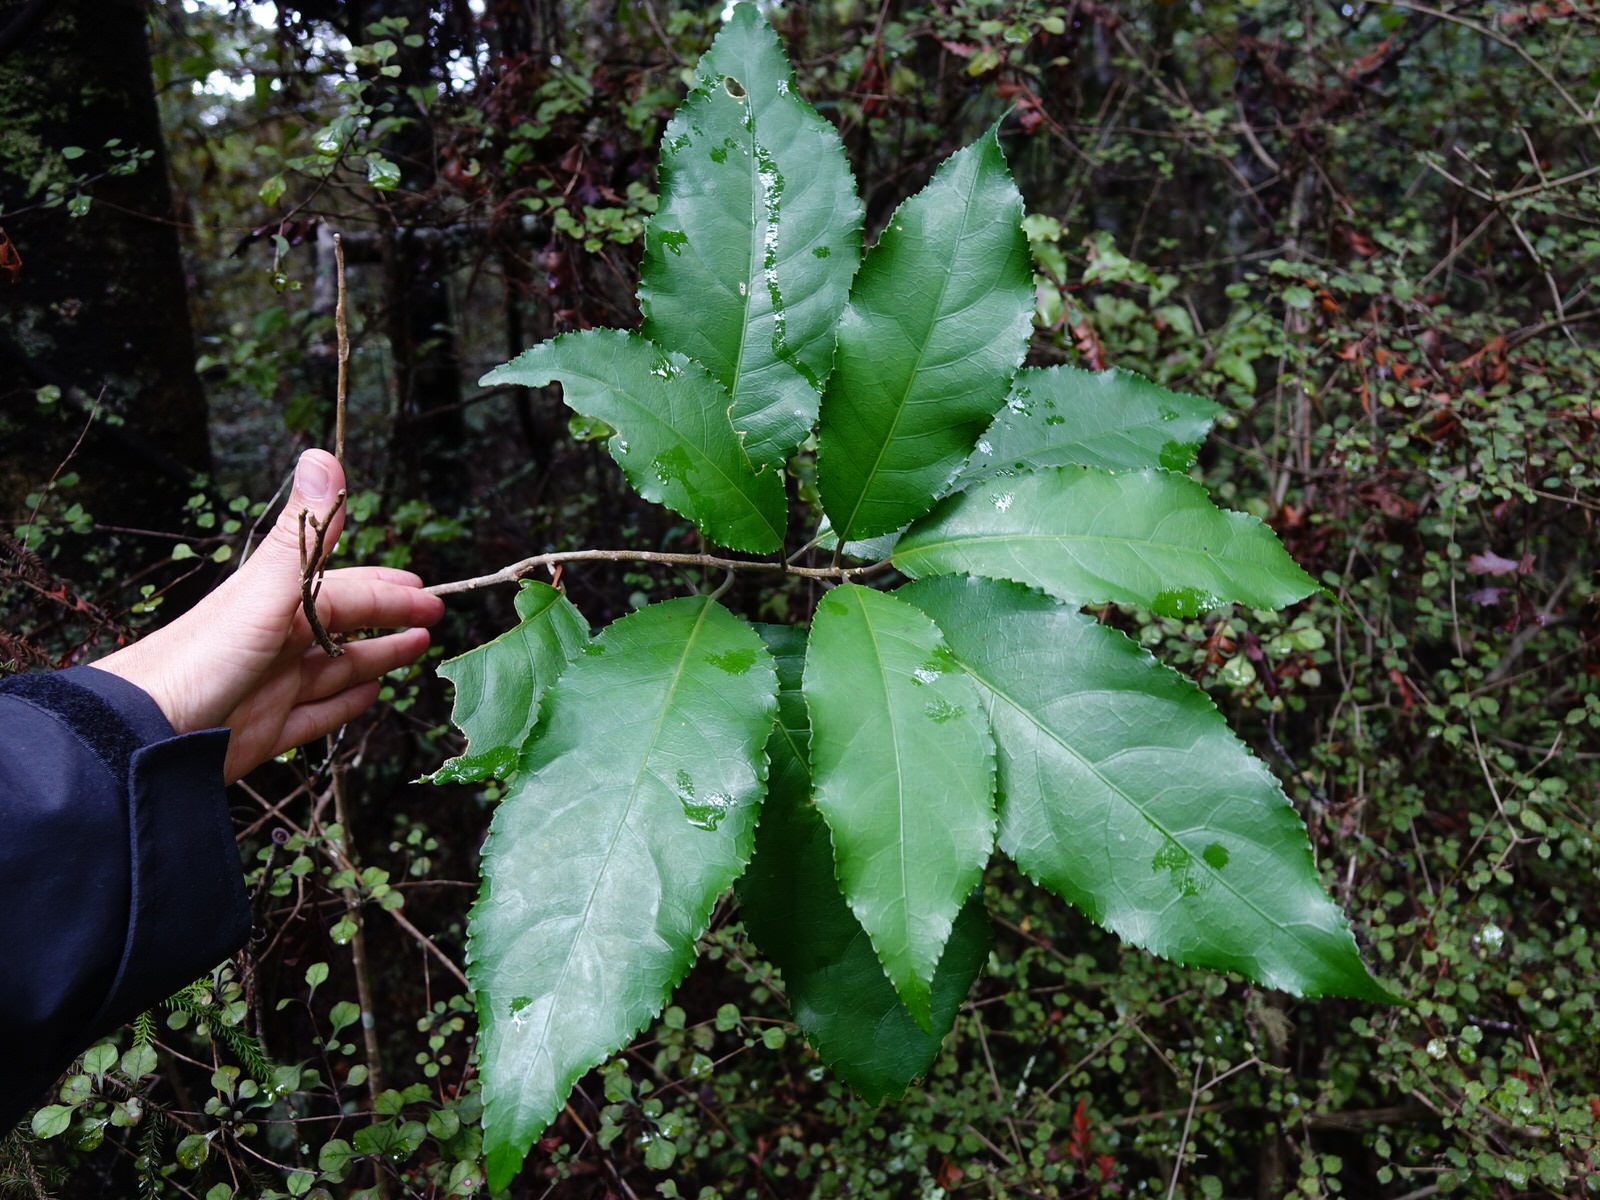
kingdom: Plantae
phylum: Tracheophyta
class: Magnoliopsida
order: Malpighiales
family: Violaceae
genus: Melicytus
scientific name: Melicytus ramiflorus
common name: Mahoe
